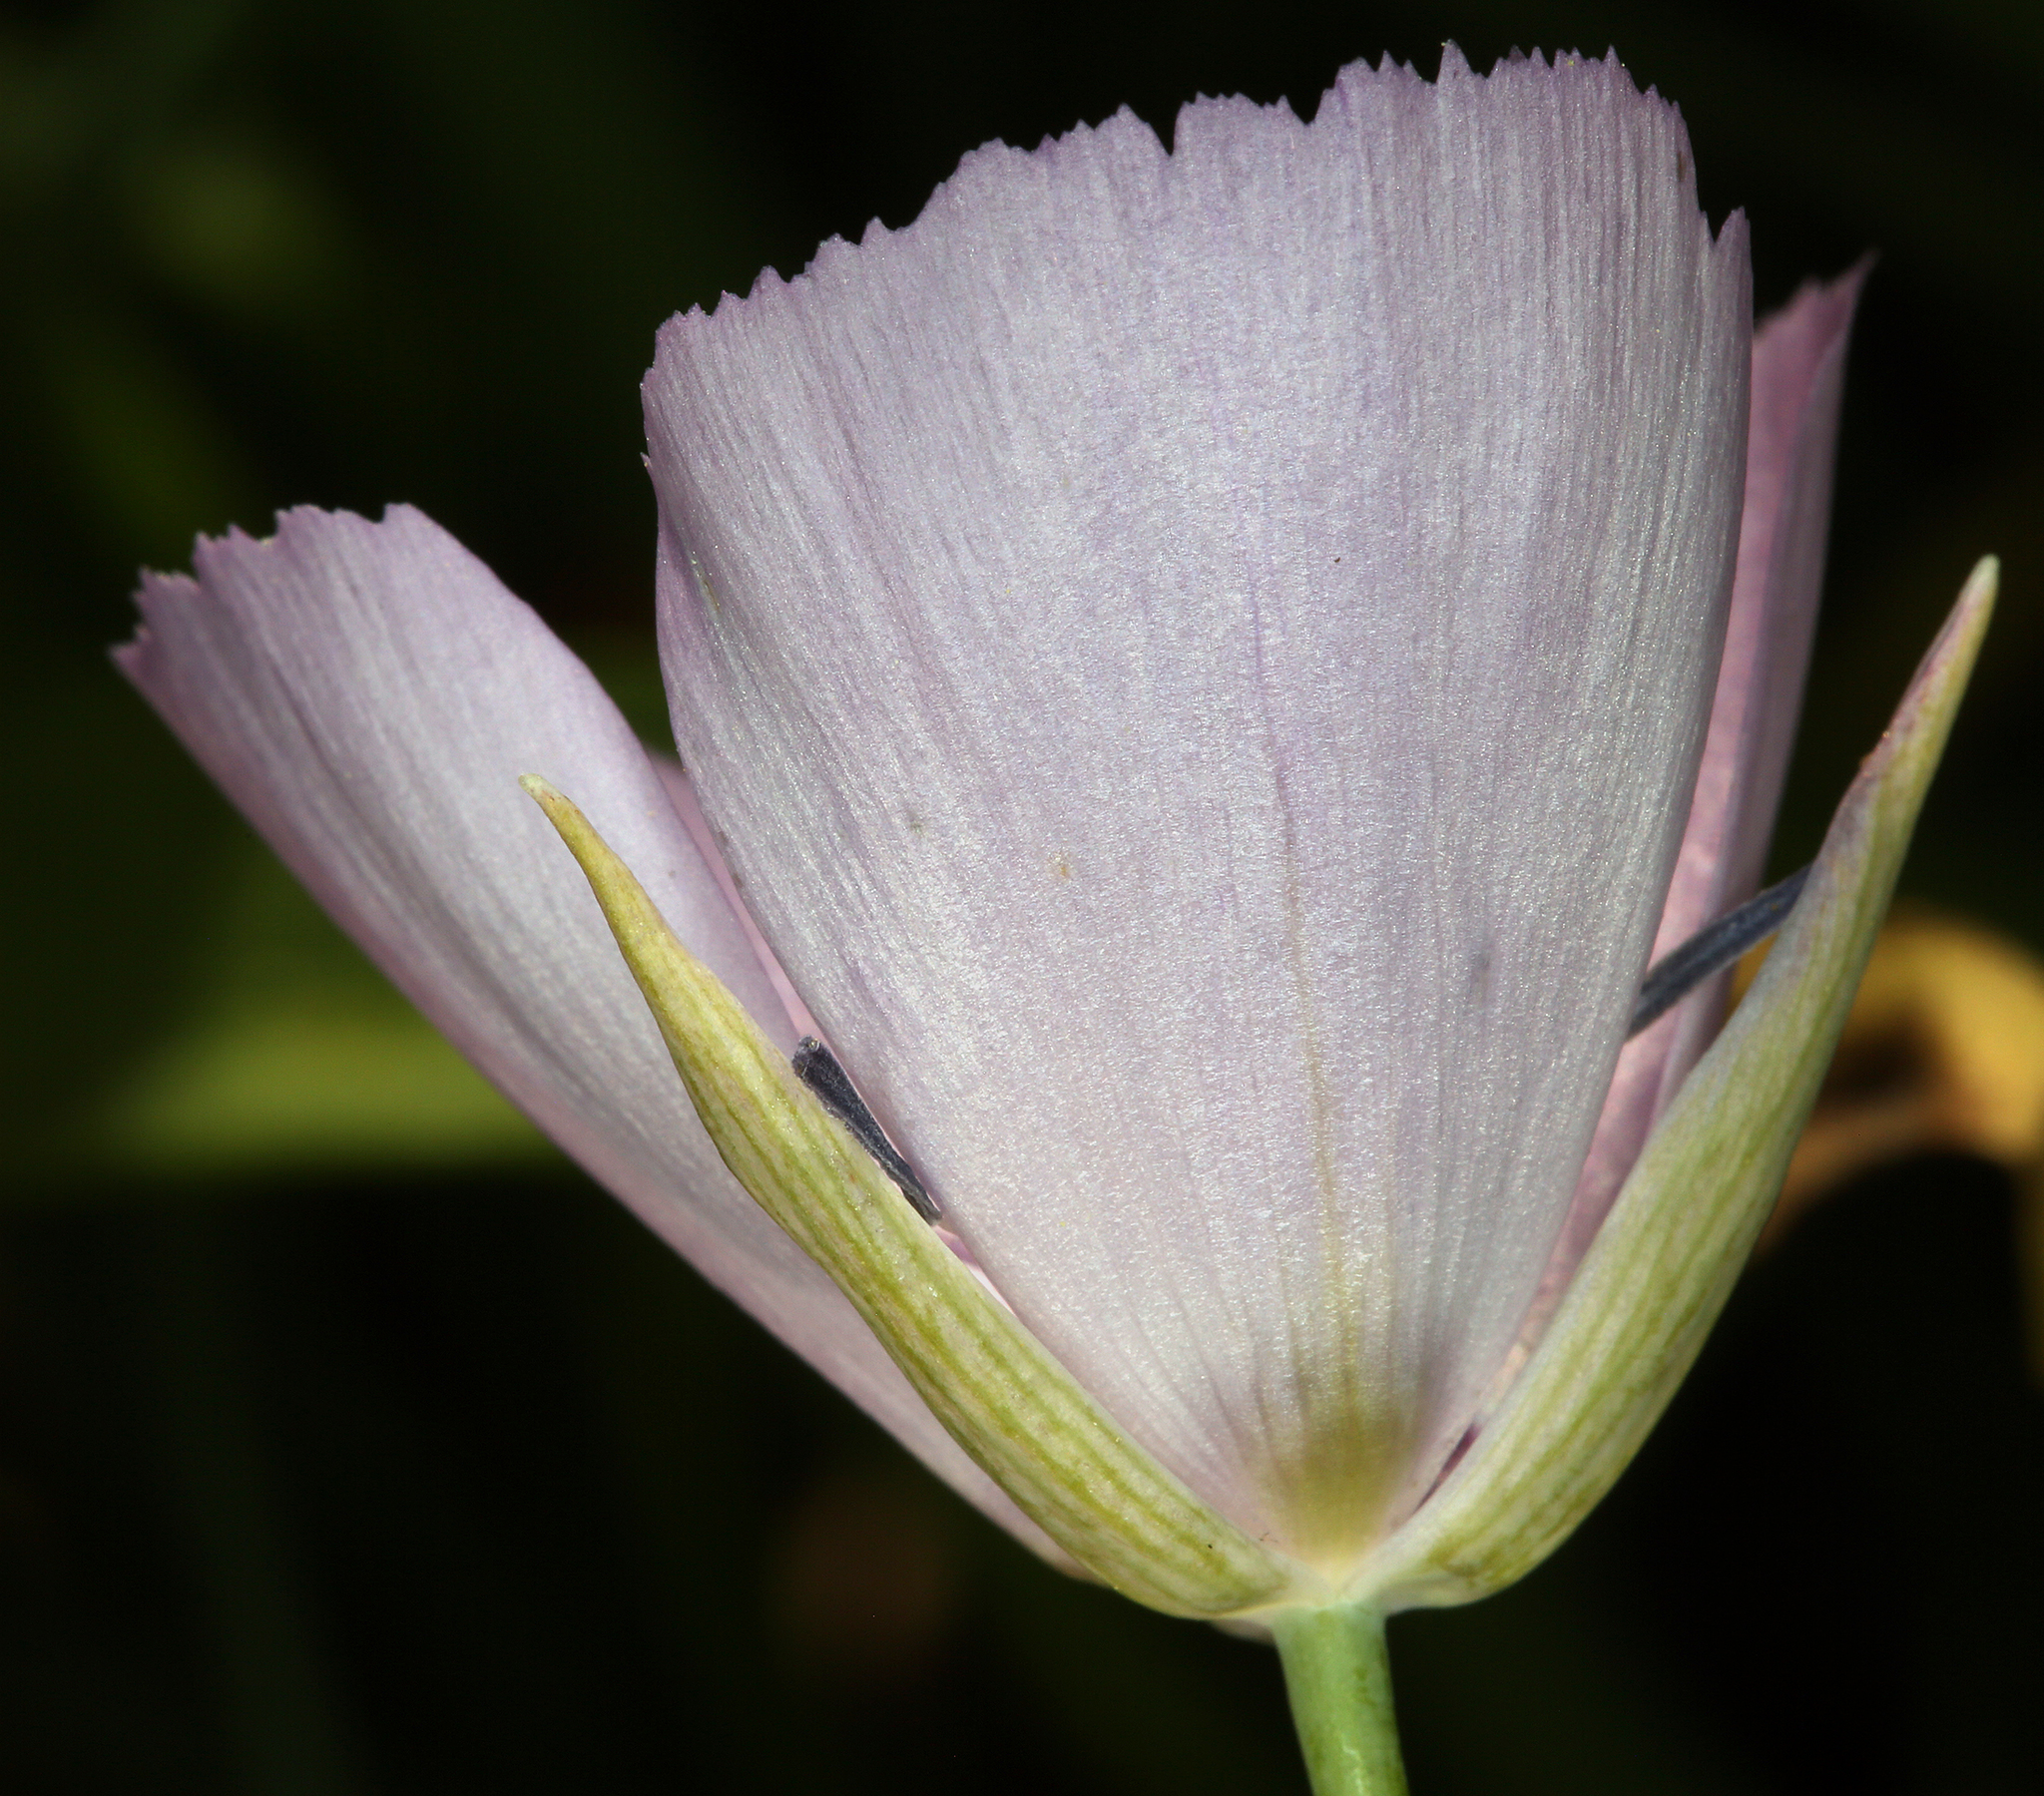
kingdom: Plantae
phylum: Tracheophyta
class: Liliopsida
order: Liliales
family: Liliaceae
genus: Calochortus
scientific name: Calochortus nudus
